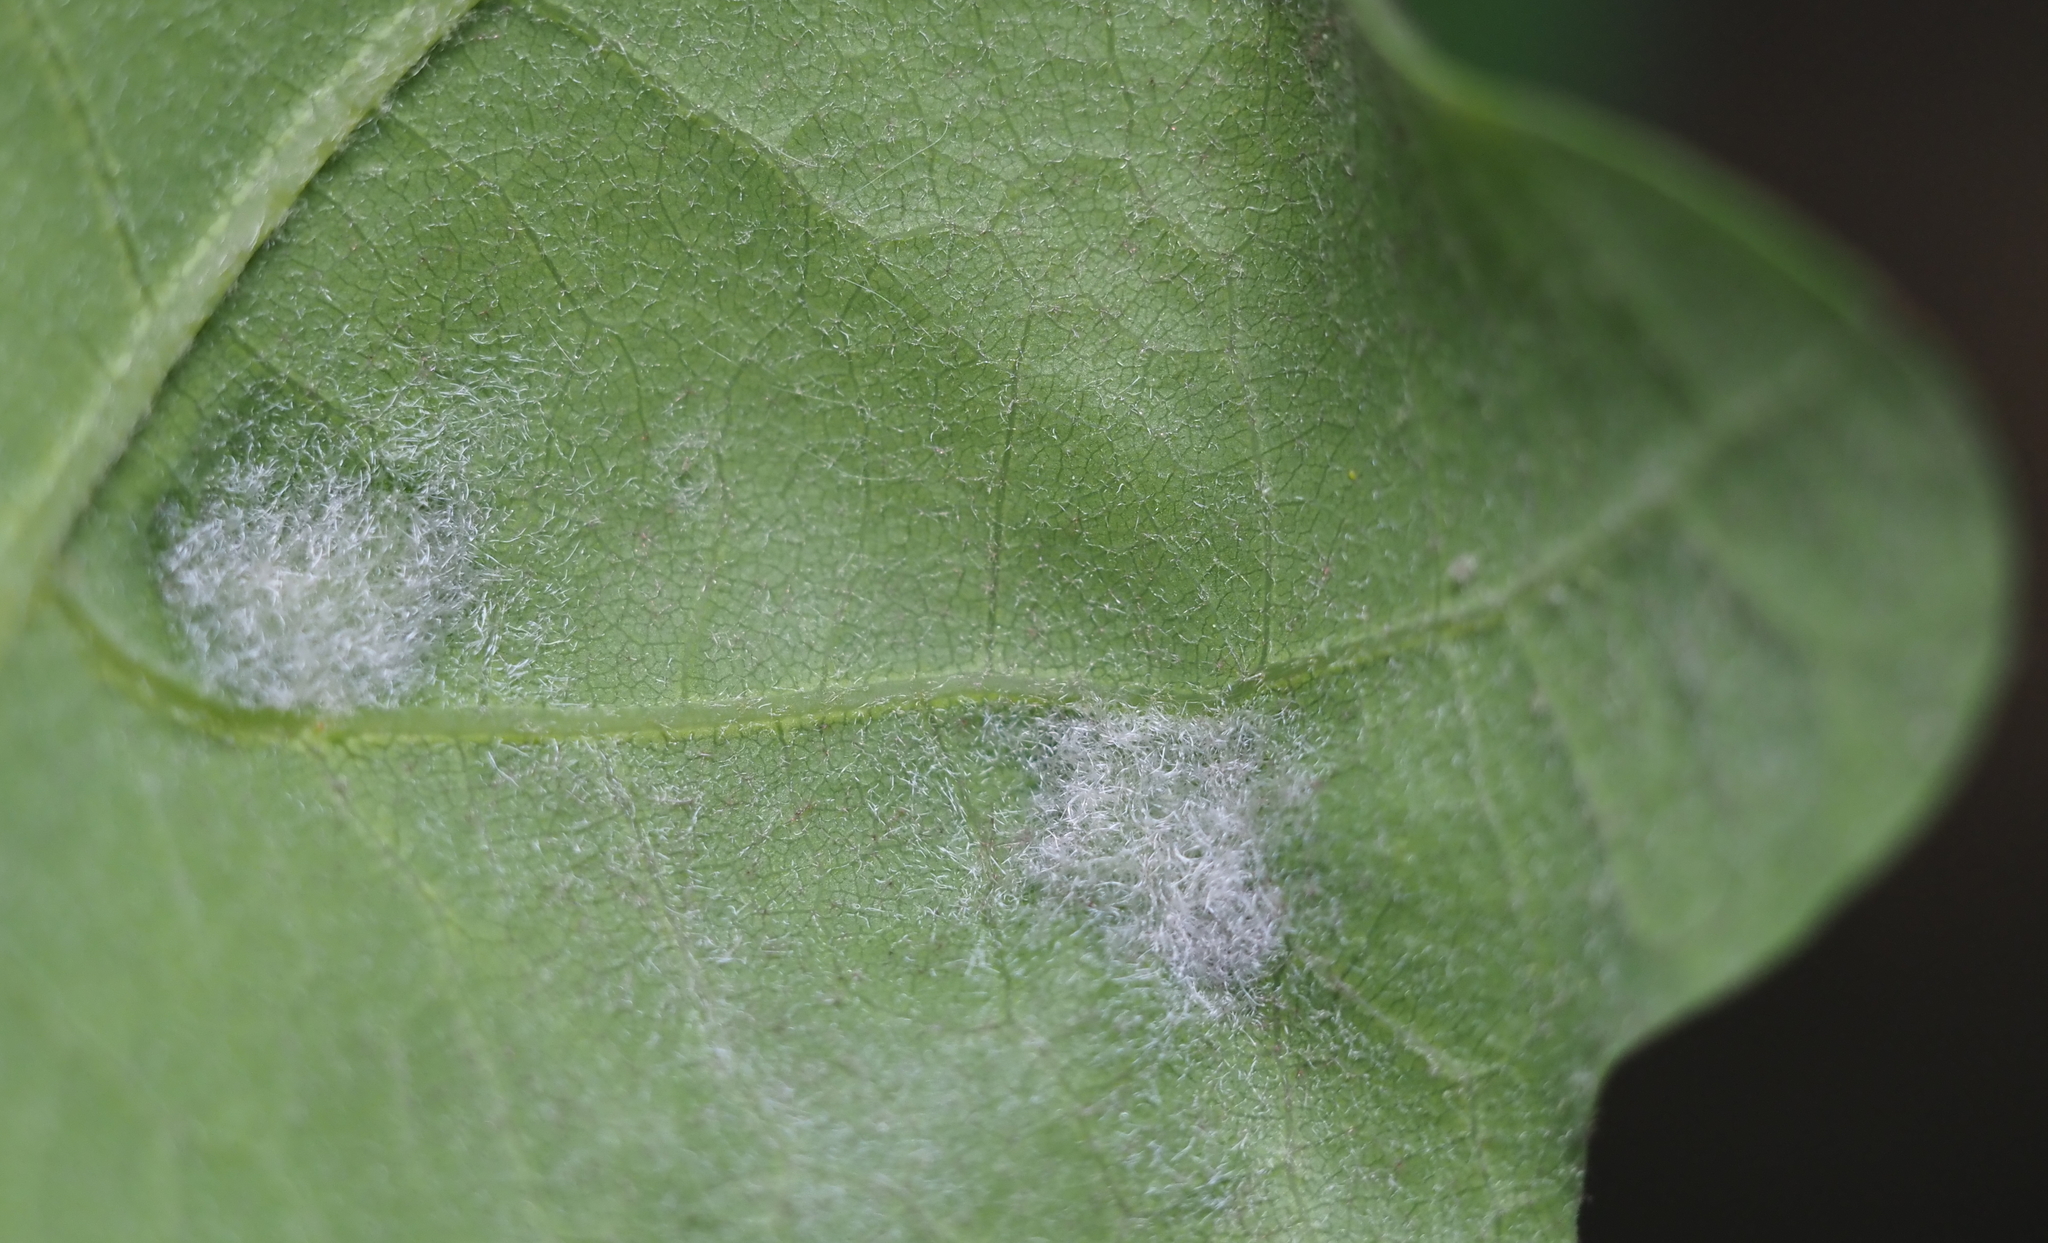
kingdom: Animalia
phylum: Arthropoda
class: Arachnida
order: Trombidiformes
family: Eriophyidae
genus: Aceria
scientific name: Aceria
